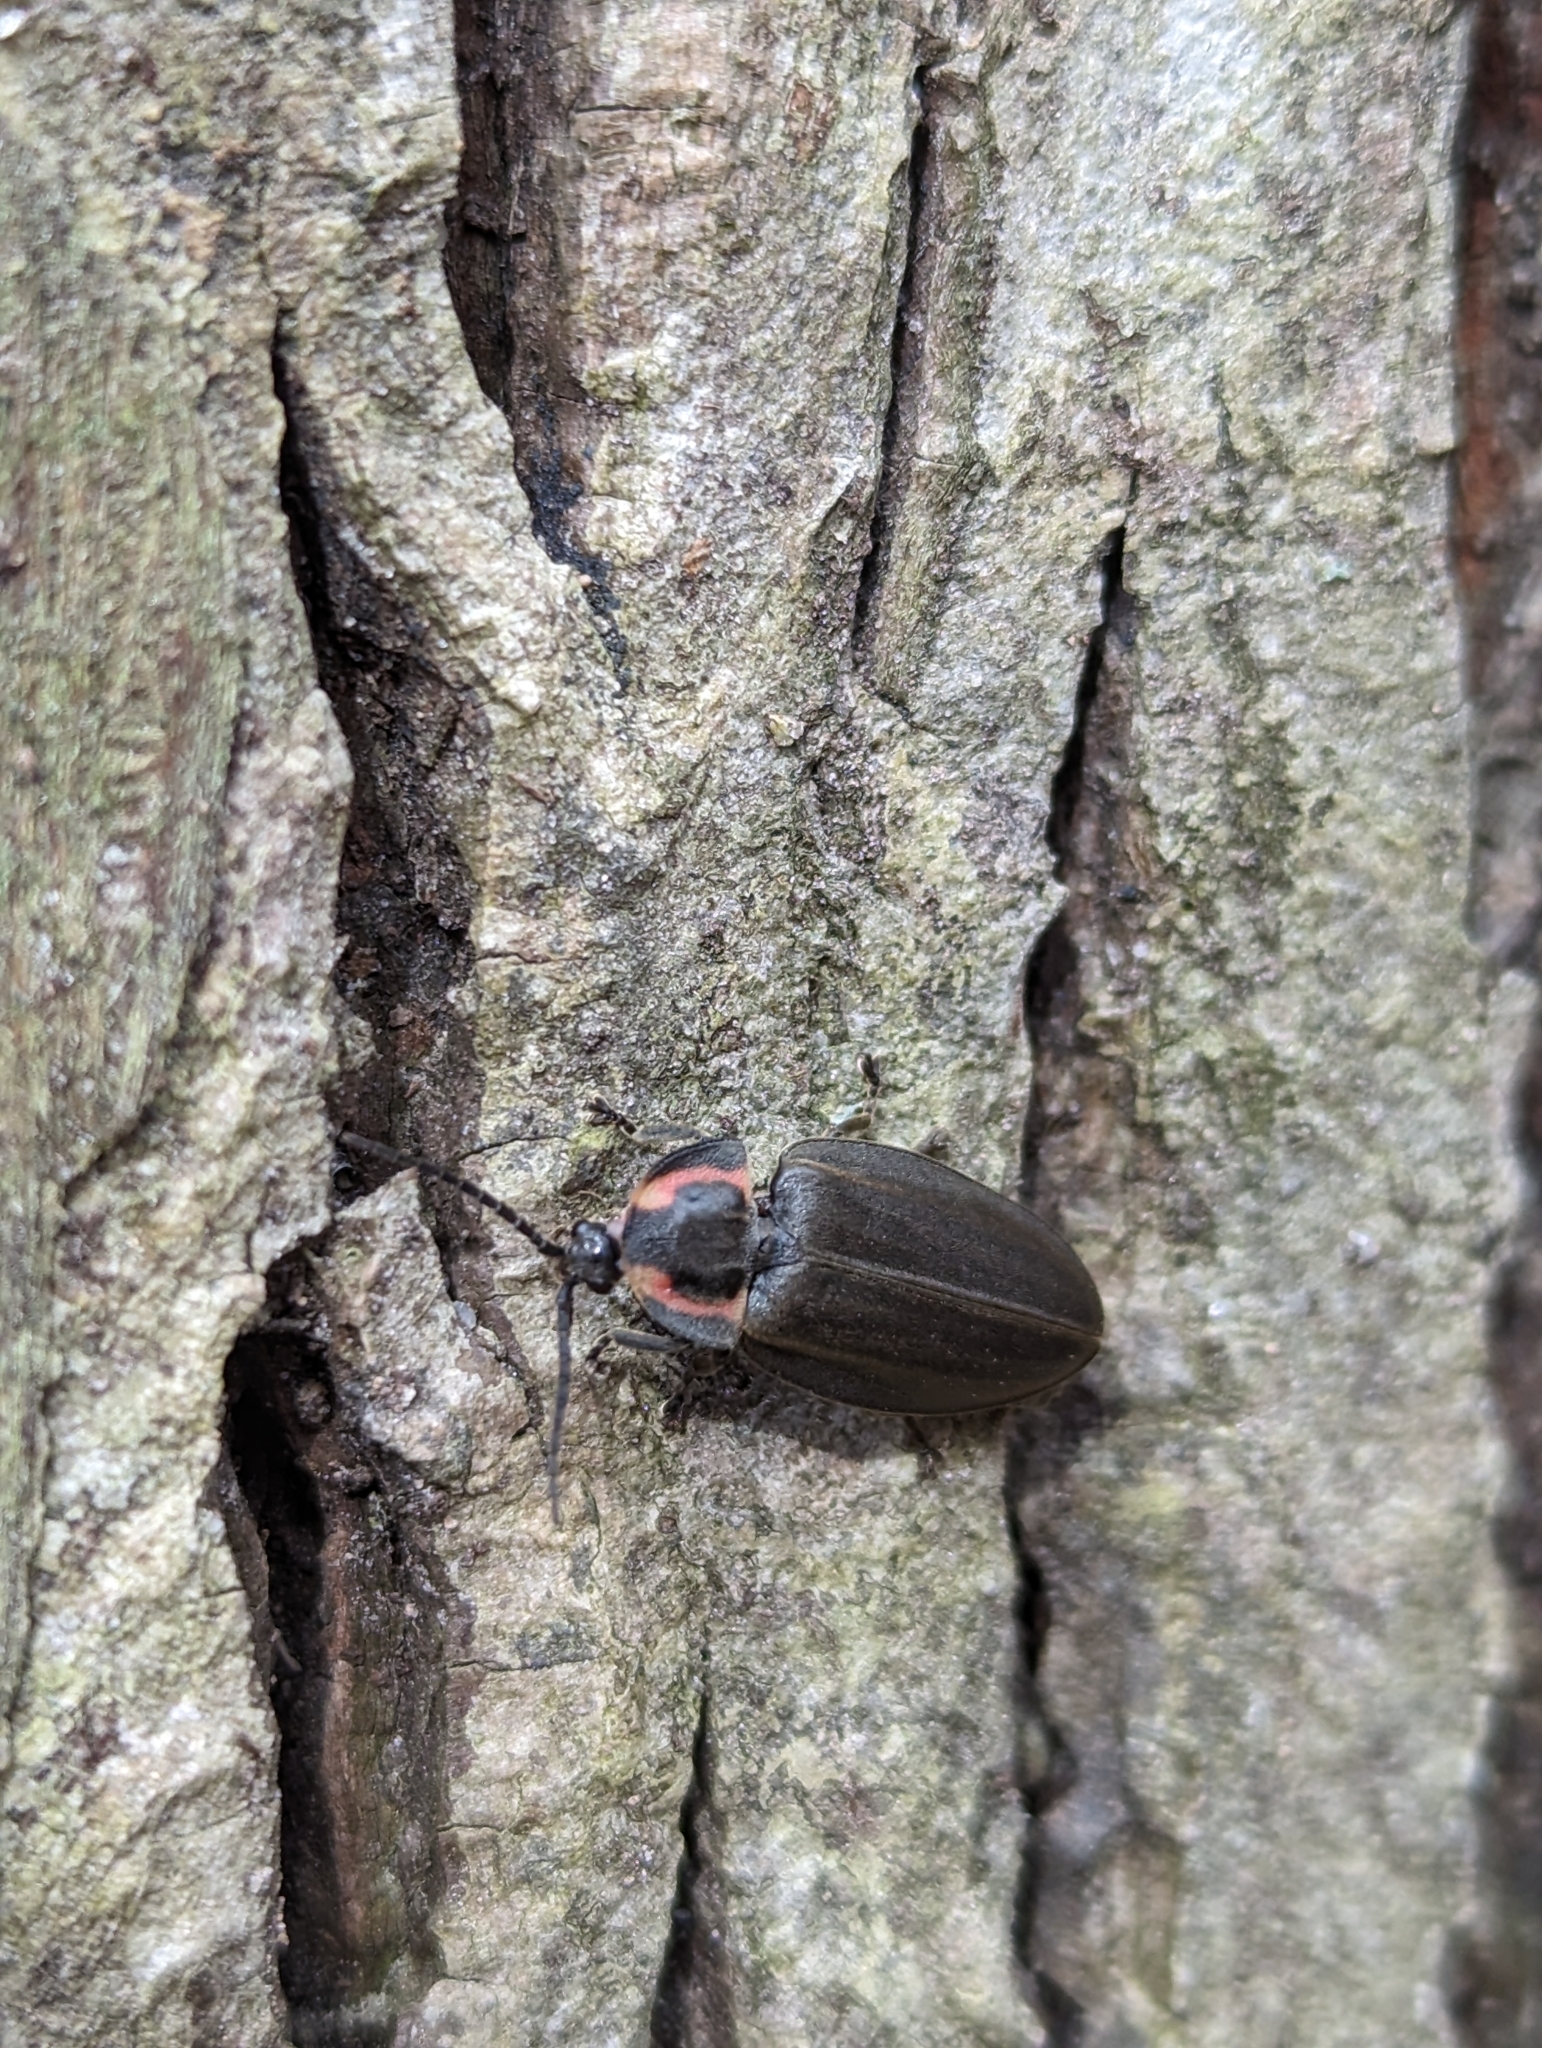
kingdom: Animalia
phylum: Arthropoda
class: Insecta
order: Coleoptera
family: Lampyridae
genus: Photinus
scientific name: Photinus corrusca
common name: Winter firefly
